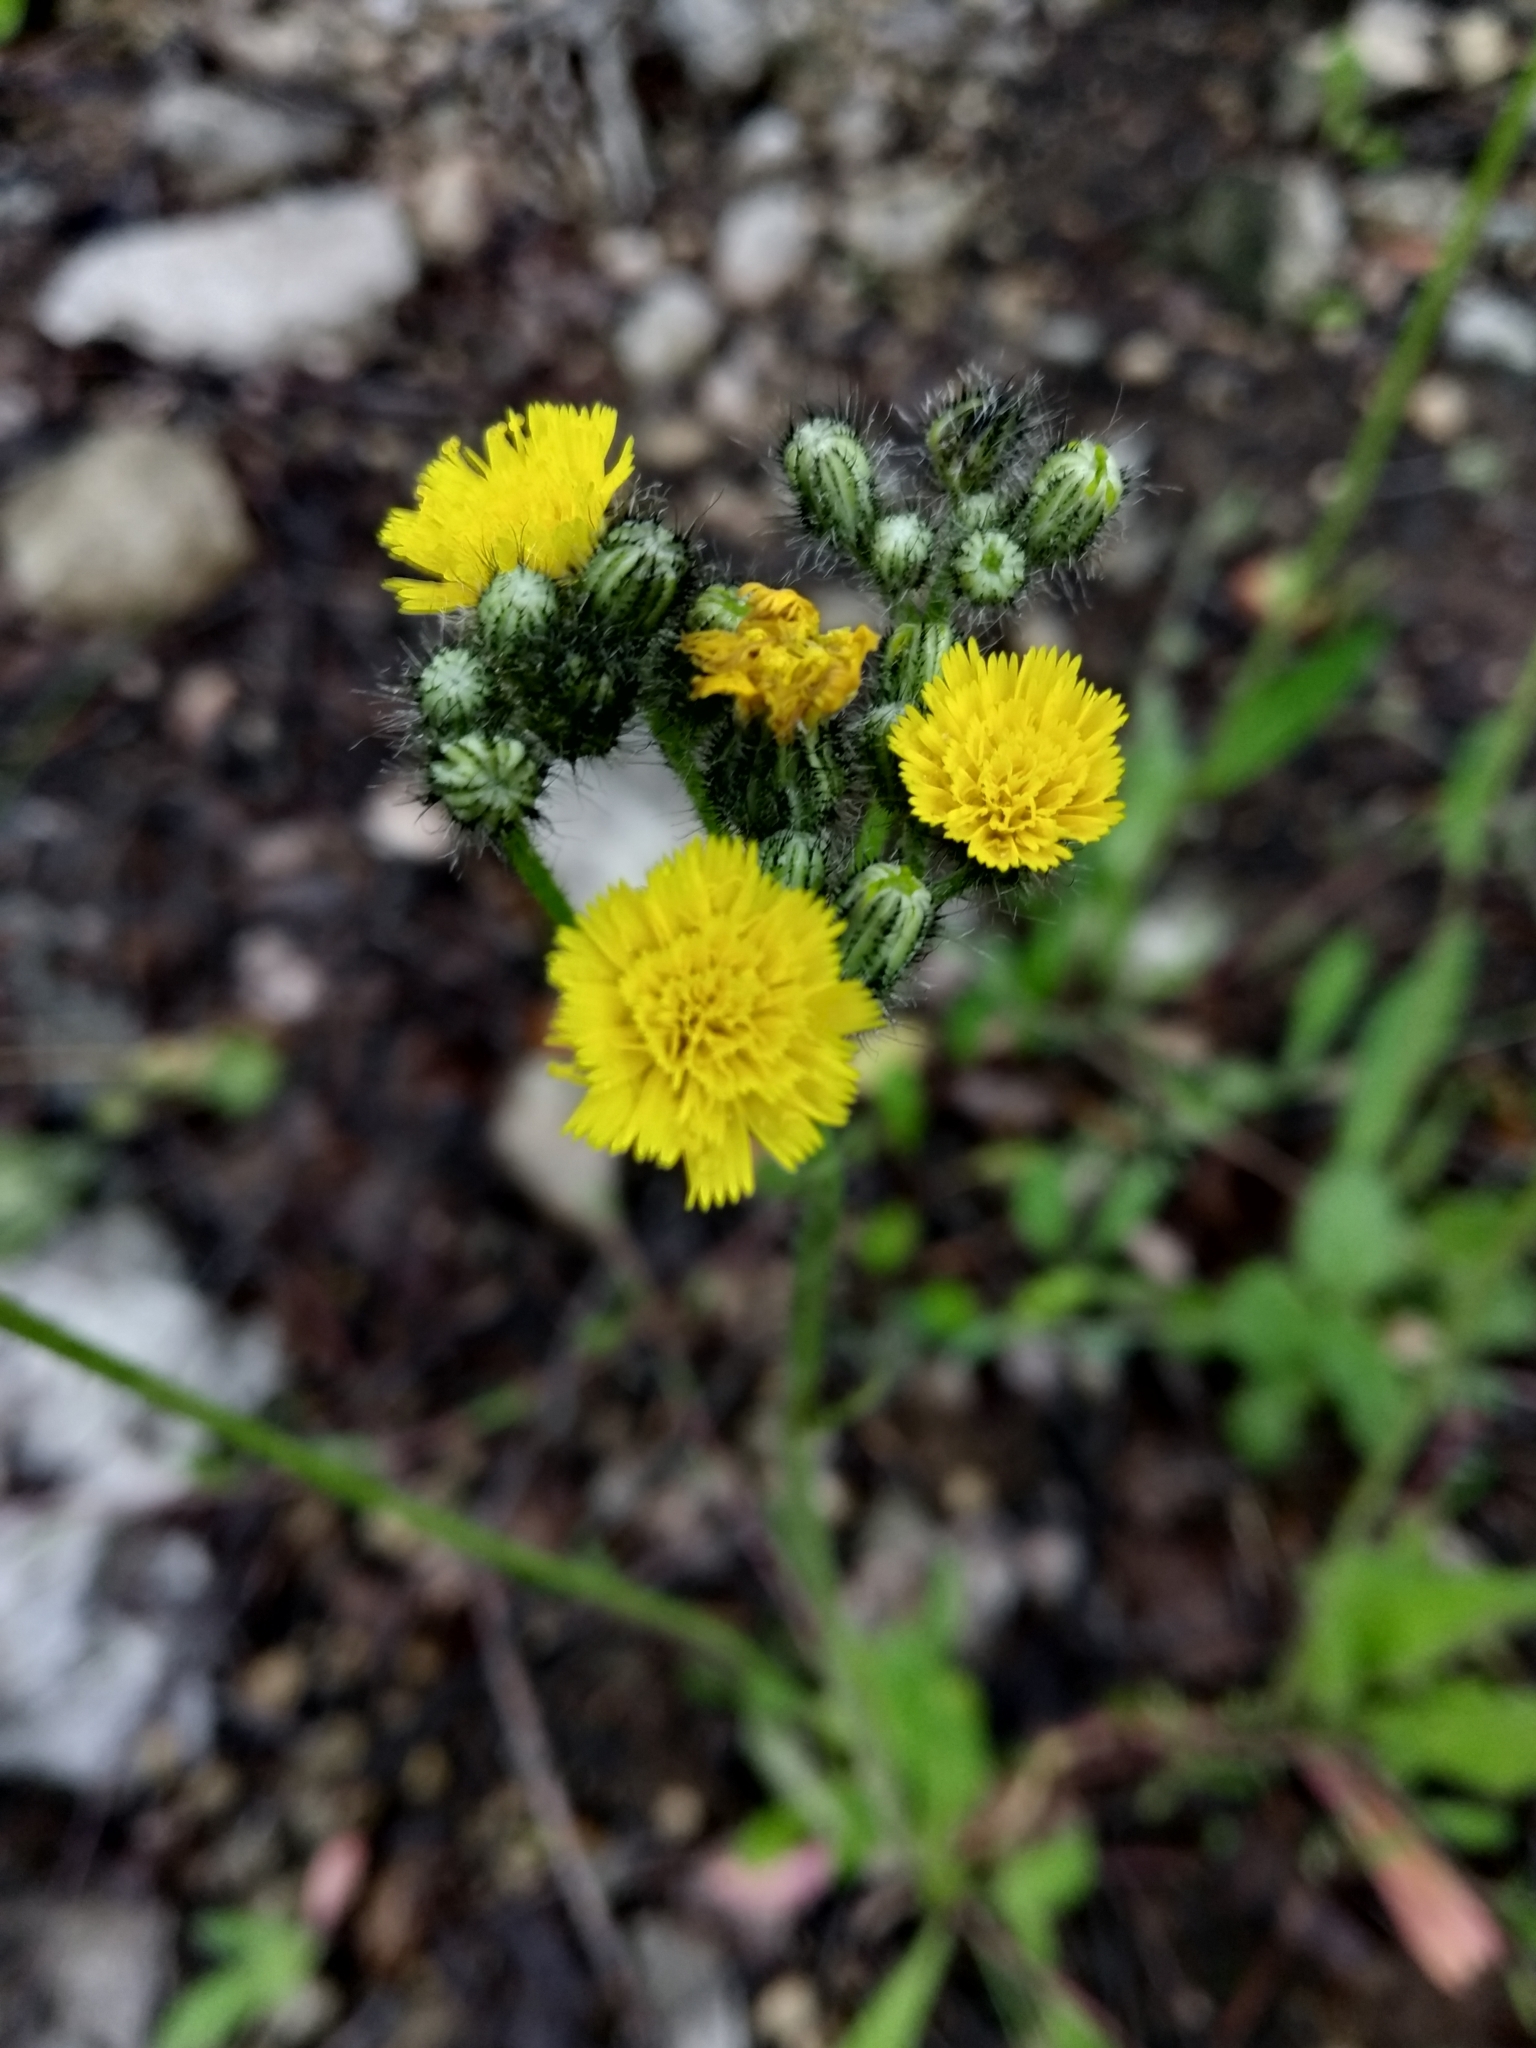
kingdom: Plantae
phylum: Tracheophyta
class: Magnoliopsida
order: Asterales
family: Asteraceae
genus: Pilosella
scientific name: Pilosella
